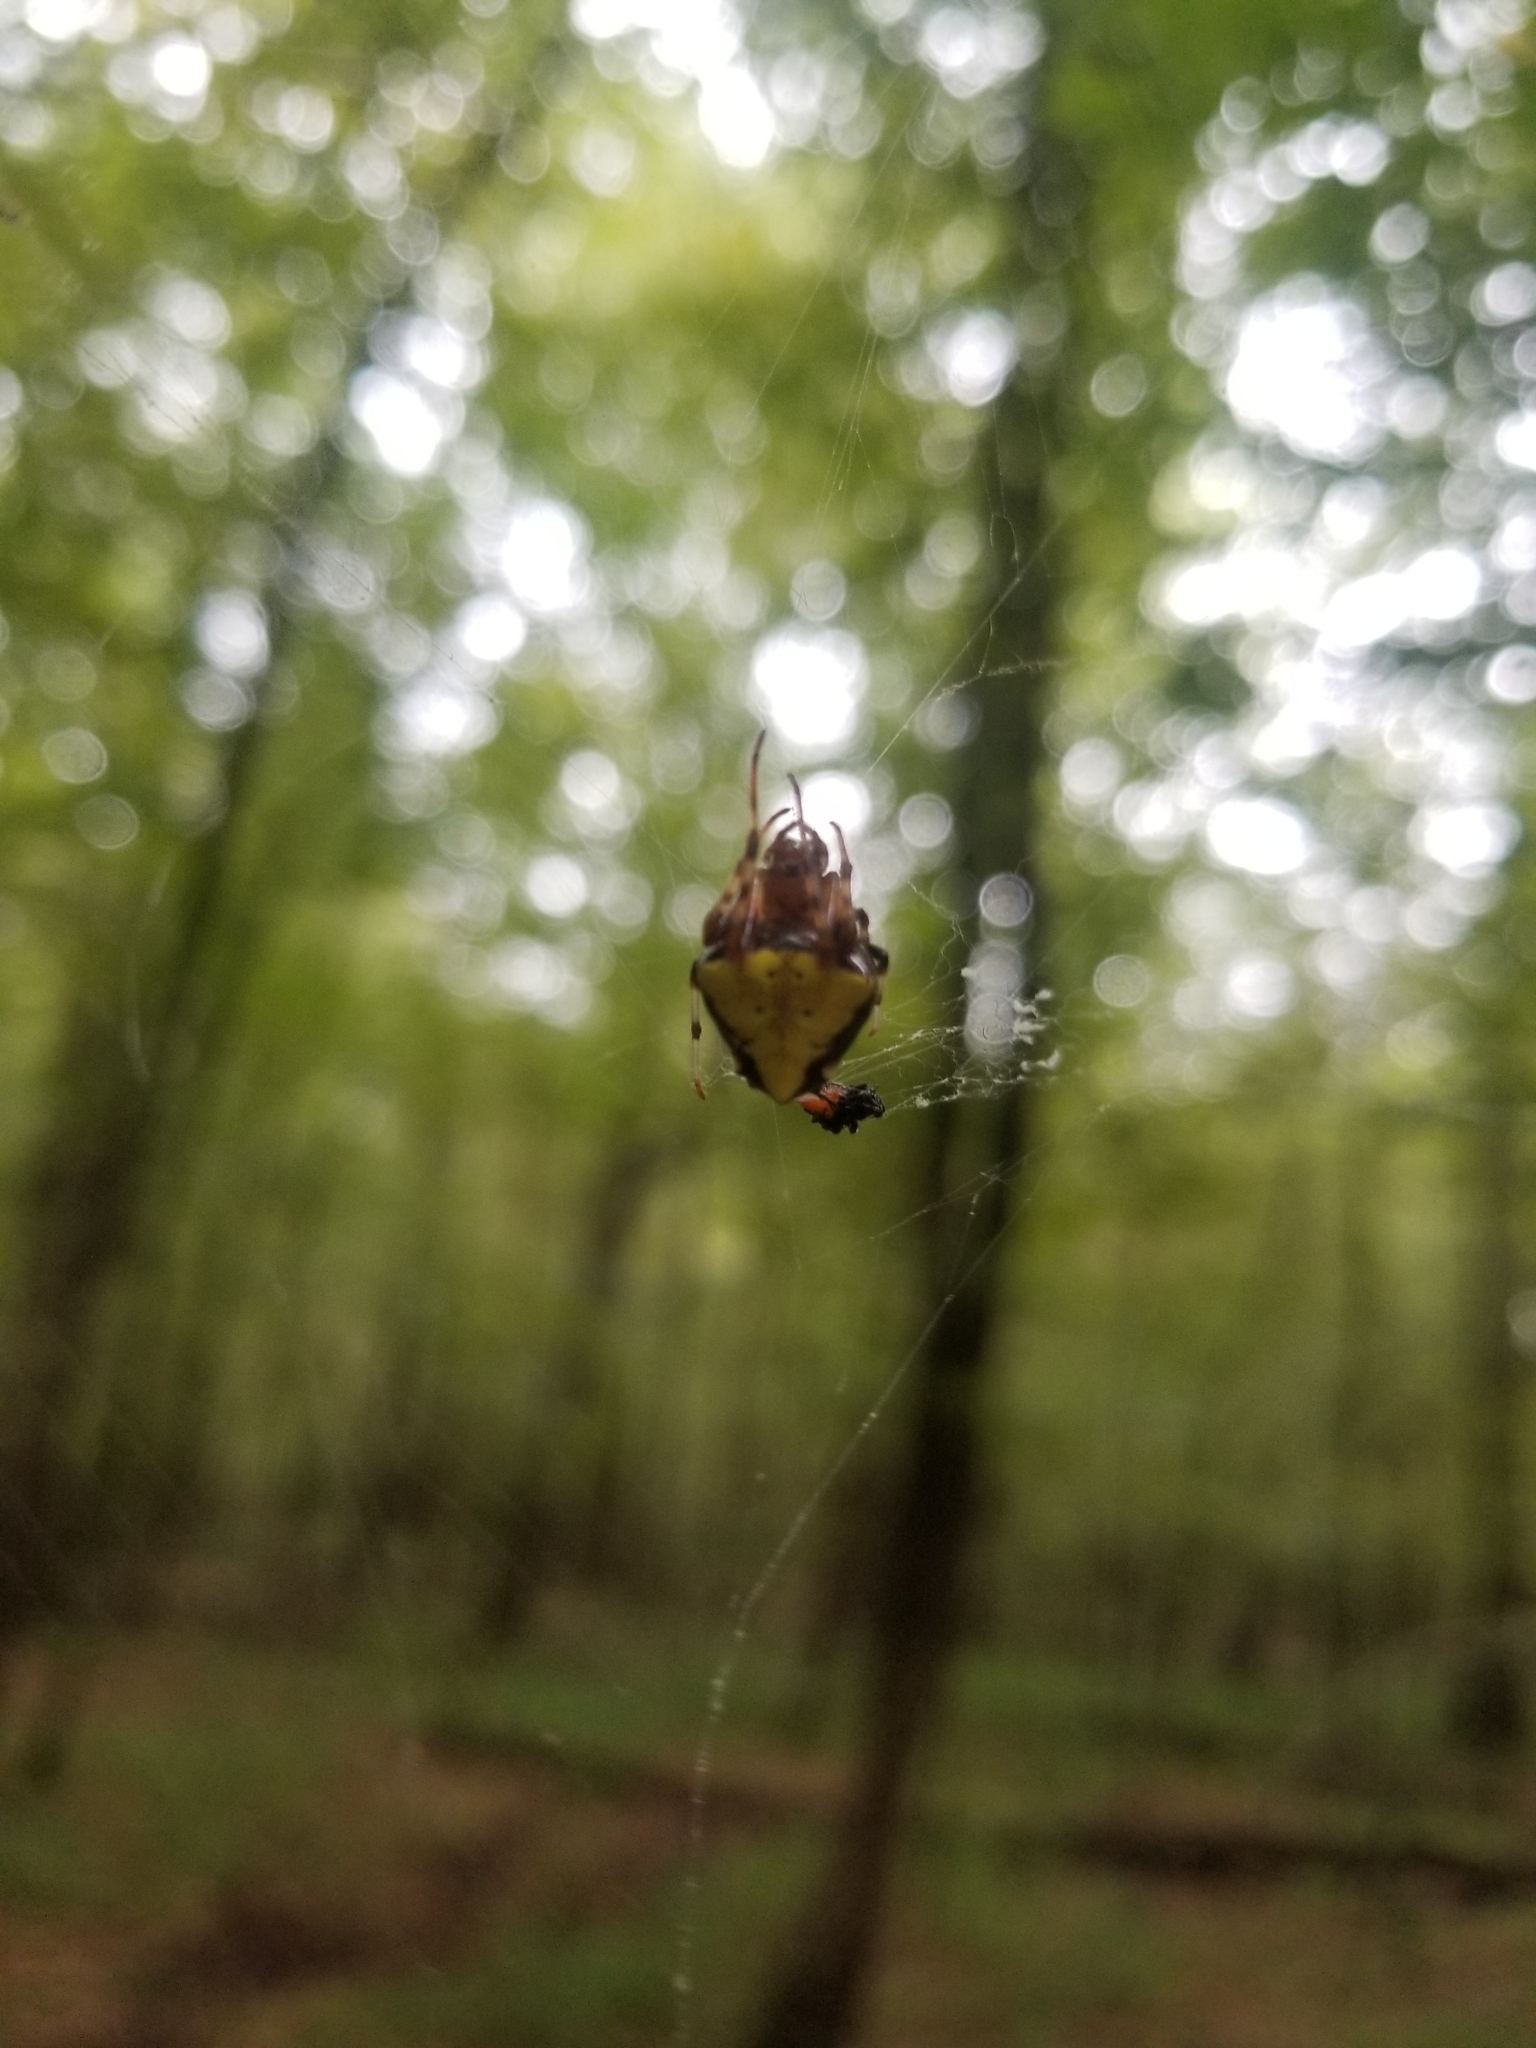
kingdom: Animalia
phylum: Arthropoda
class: Arachnida
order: Araneae
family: Araneidae
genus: Verrucosa
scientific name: Verrucosa arenata
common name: Orb weavers
